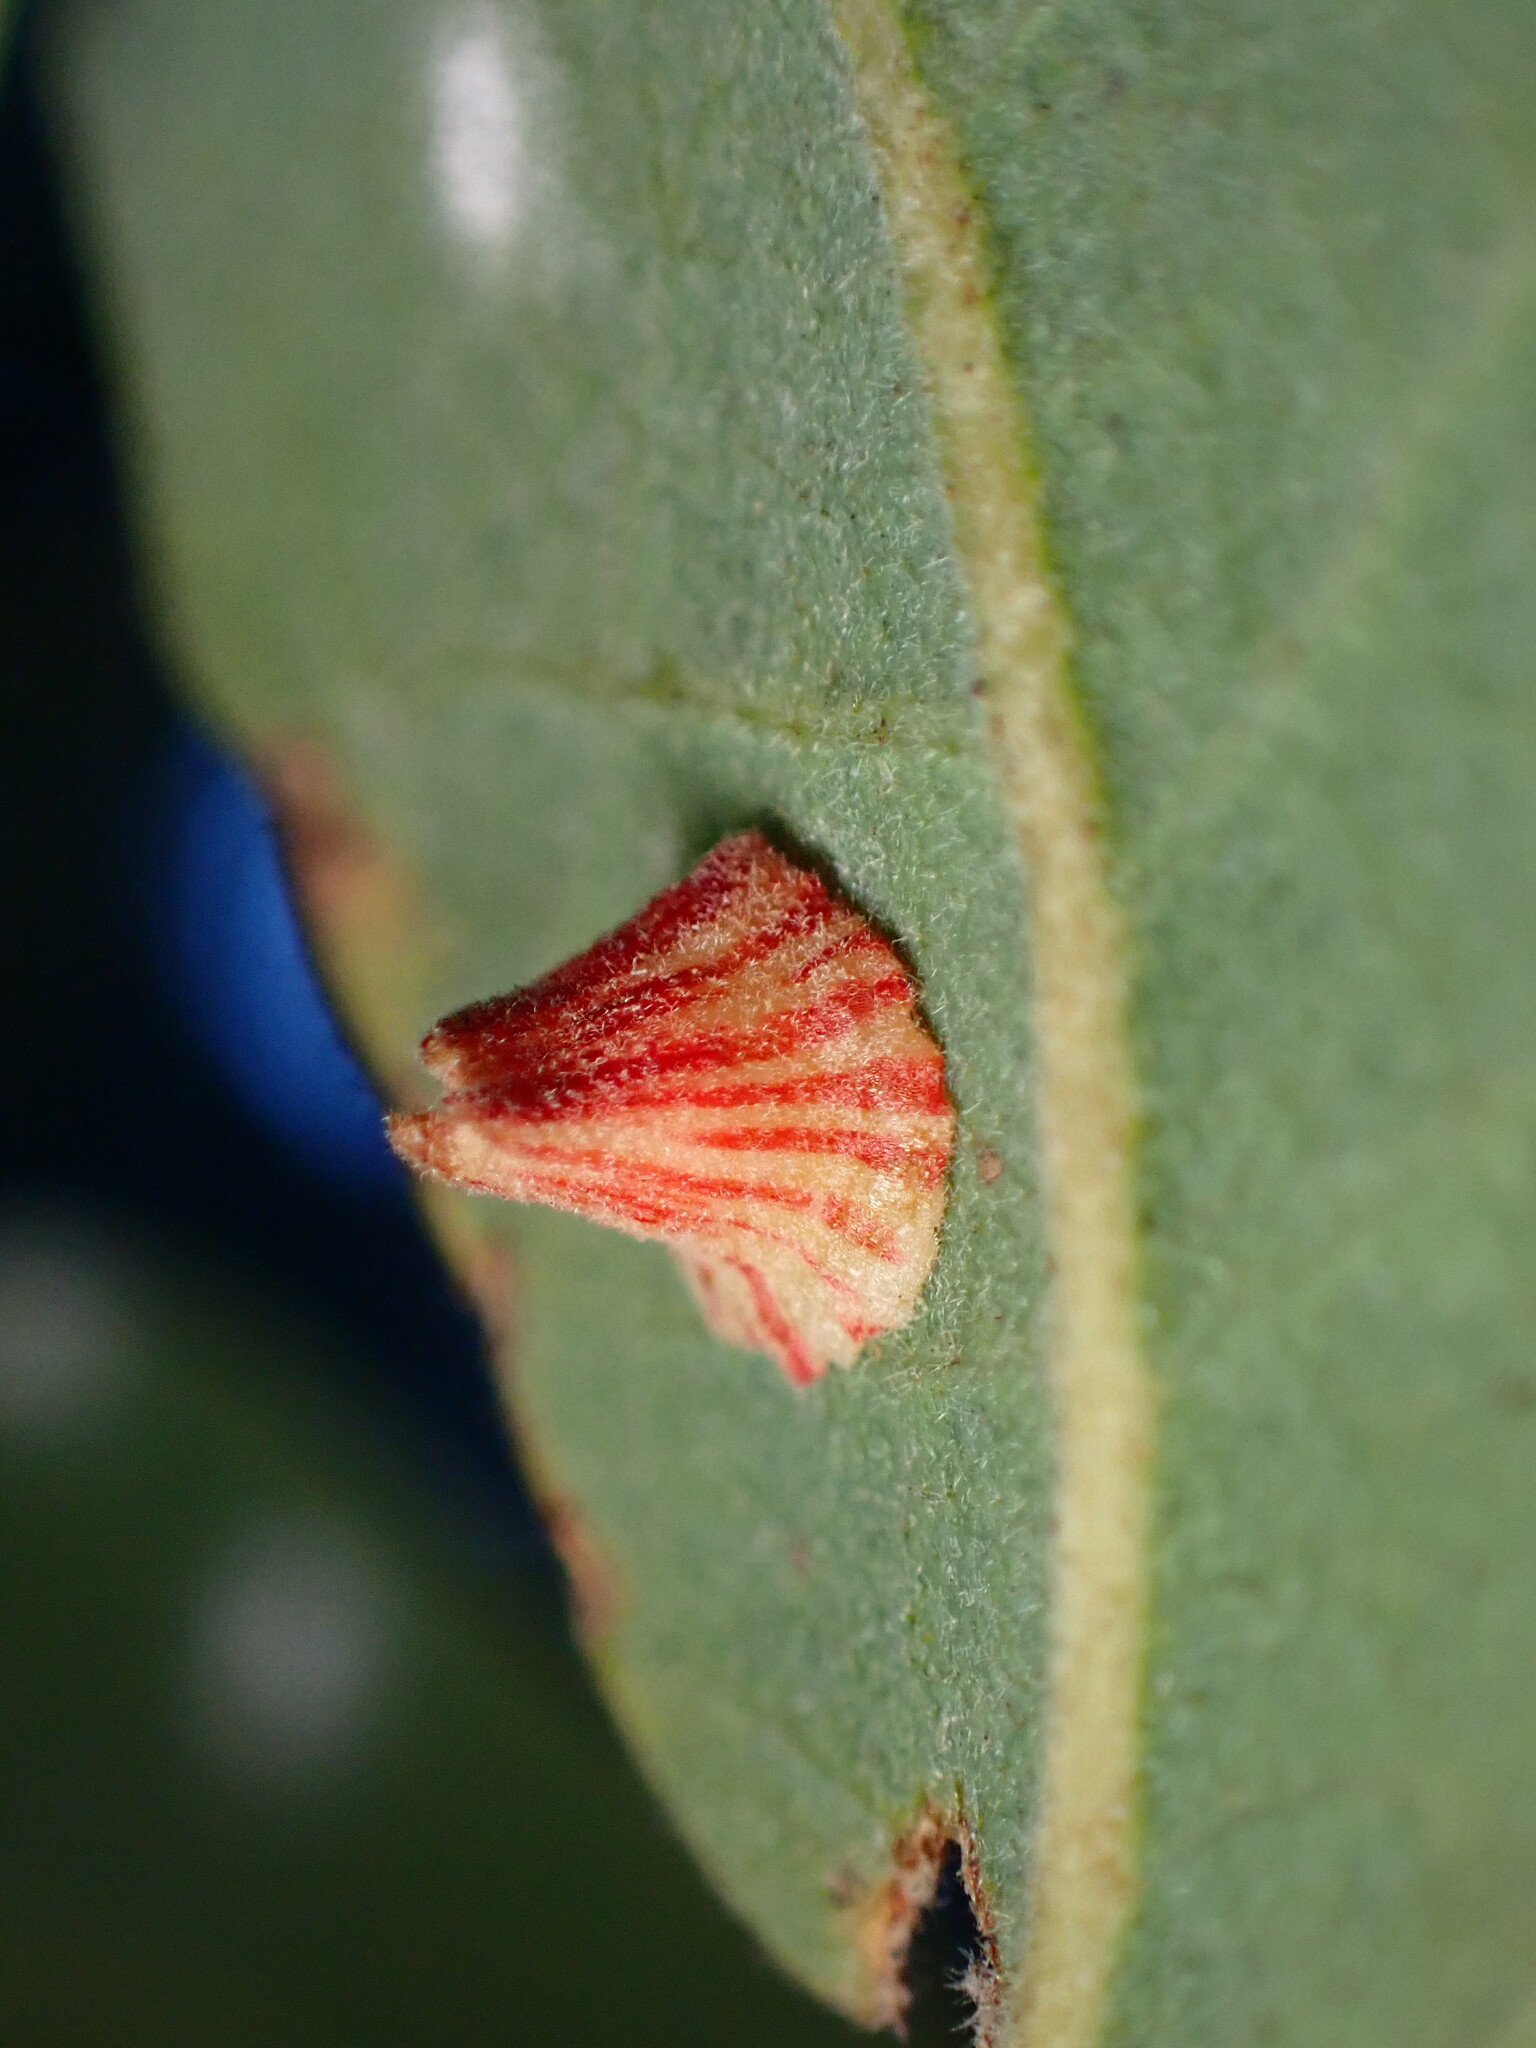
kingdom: Animalia
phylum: Arthropoda
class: Insecta
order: Hymenoptera
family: Cynipidae
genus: Andricus
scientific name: Andricus
